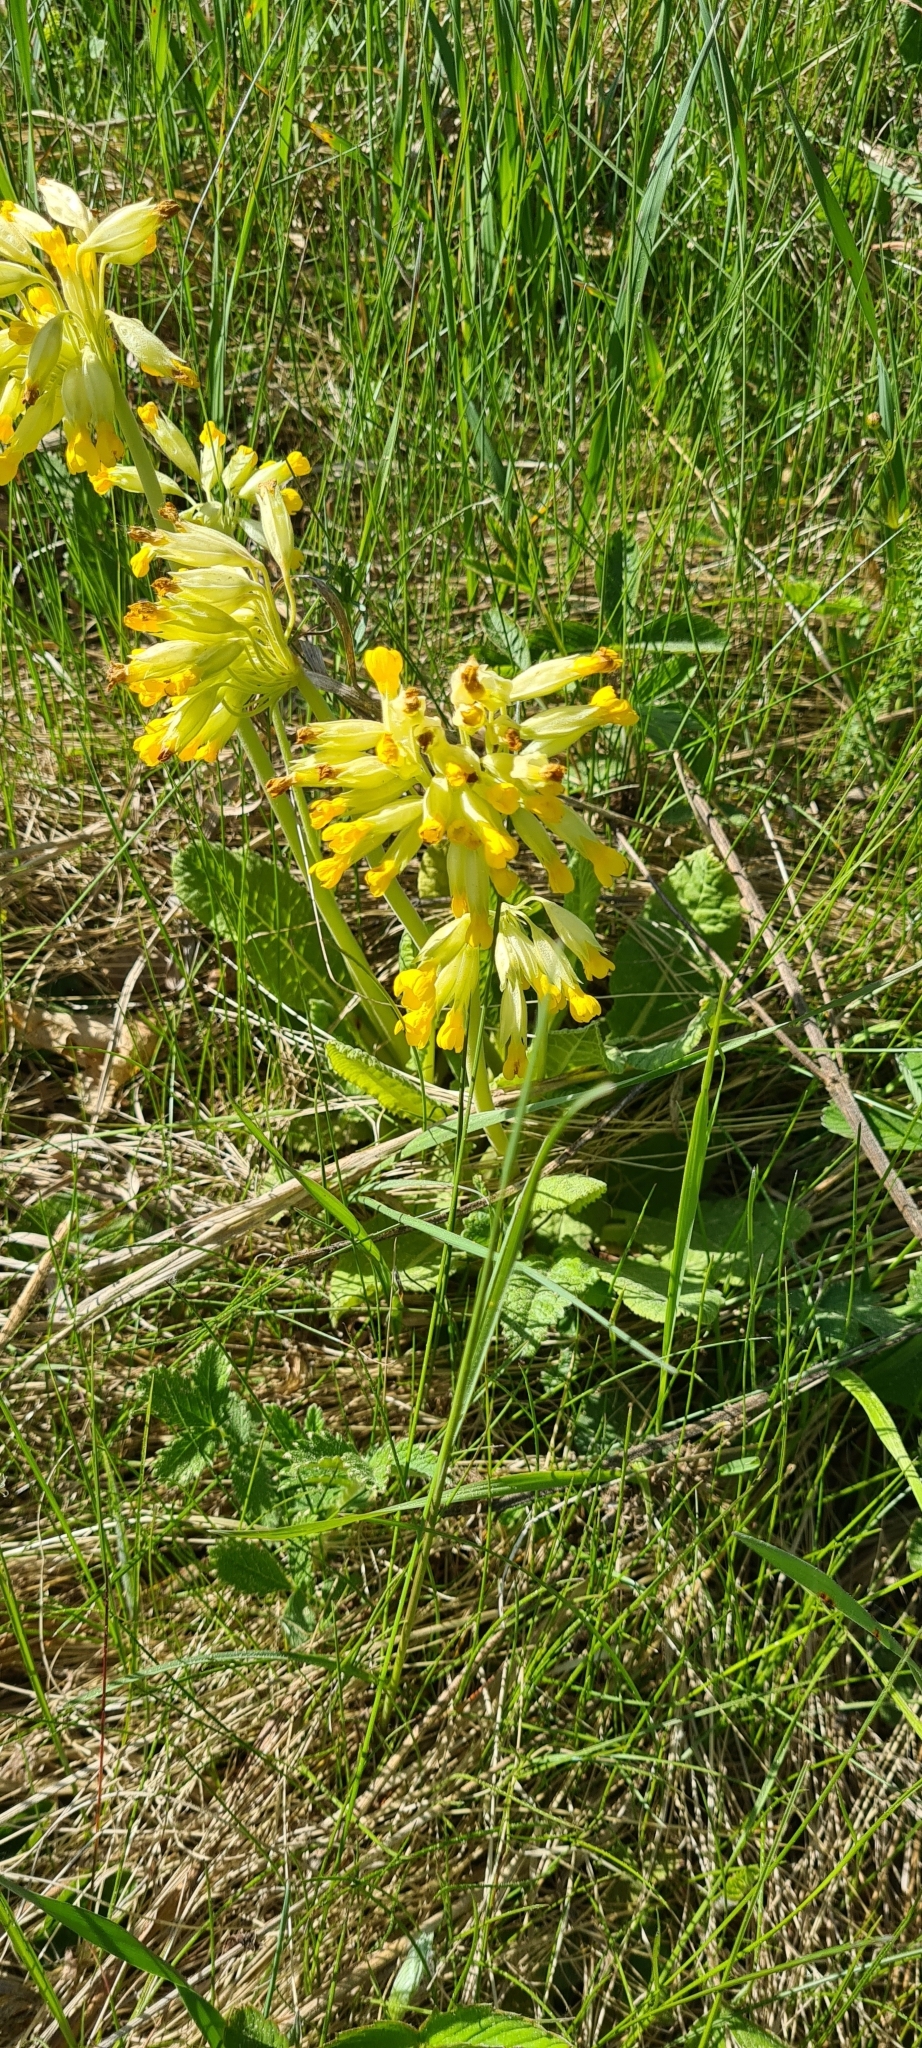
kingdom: Plantae
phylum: Tracheophyta
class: Magnoliopsida
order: Ericales
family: Primulaceae
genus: Primula
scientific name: Primula veris
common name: Cowslip
